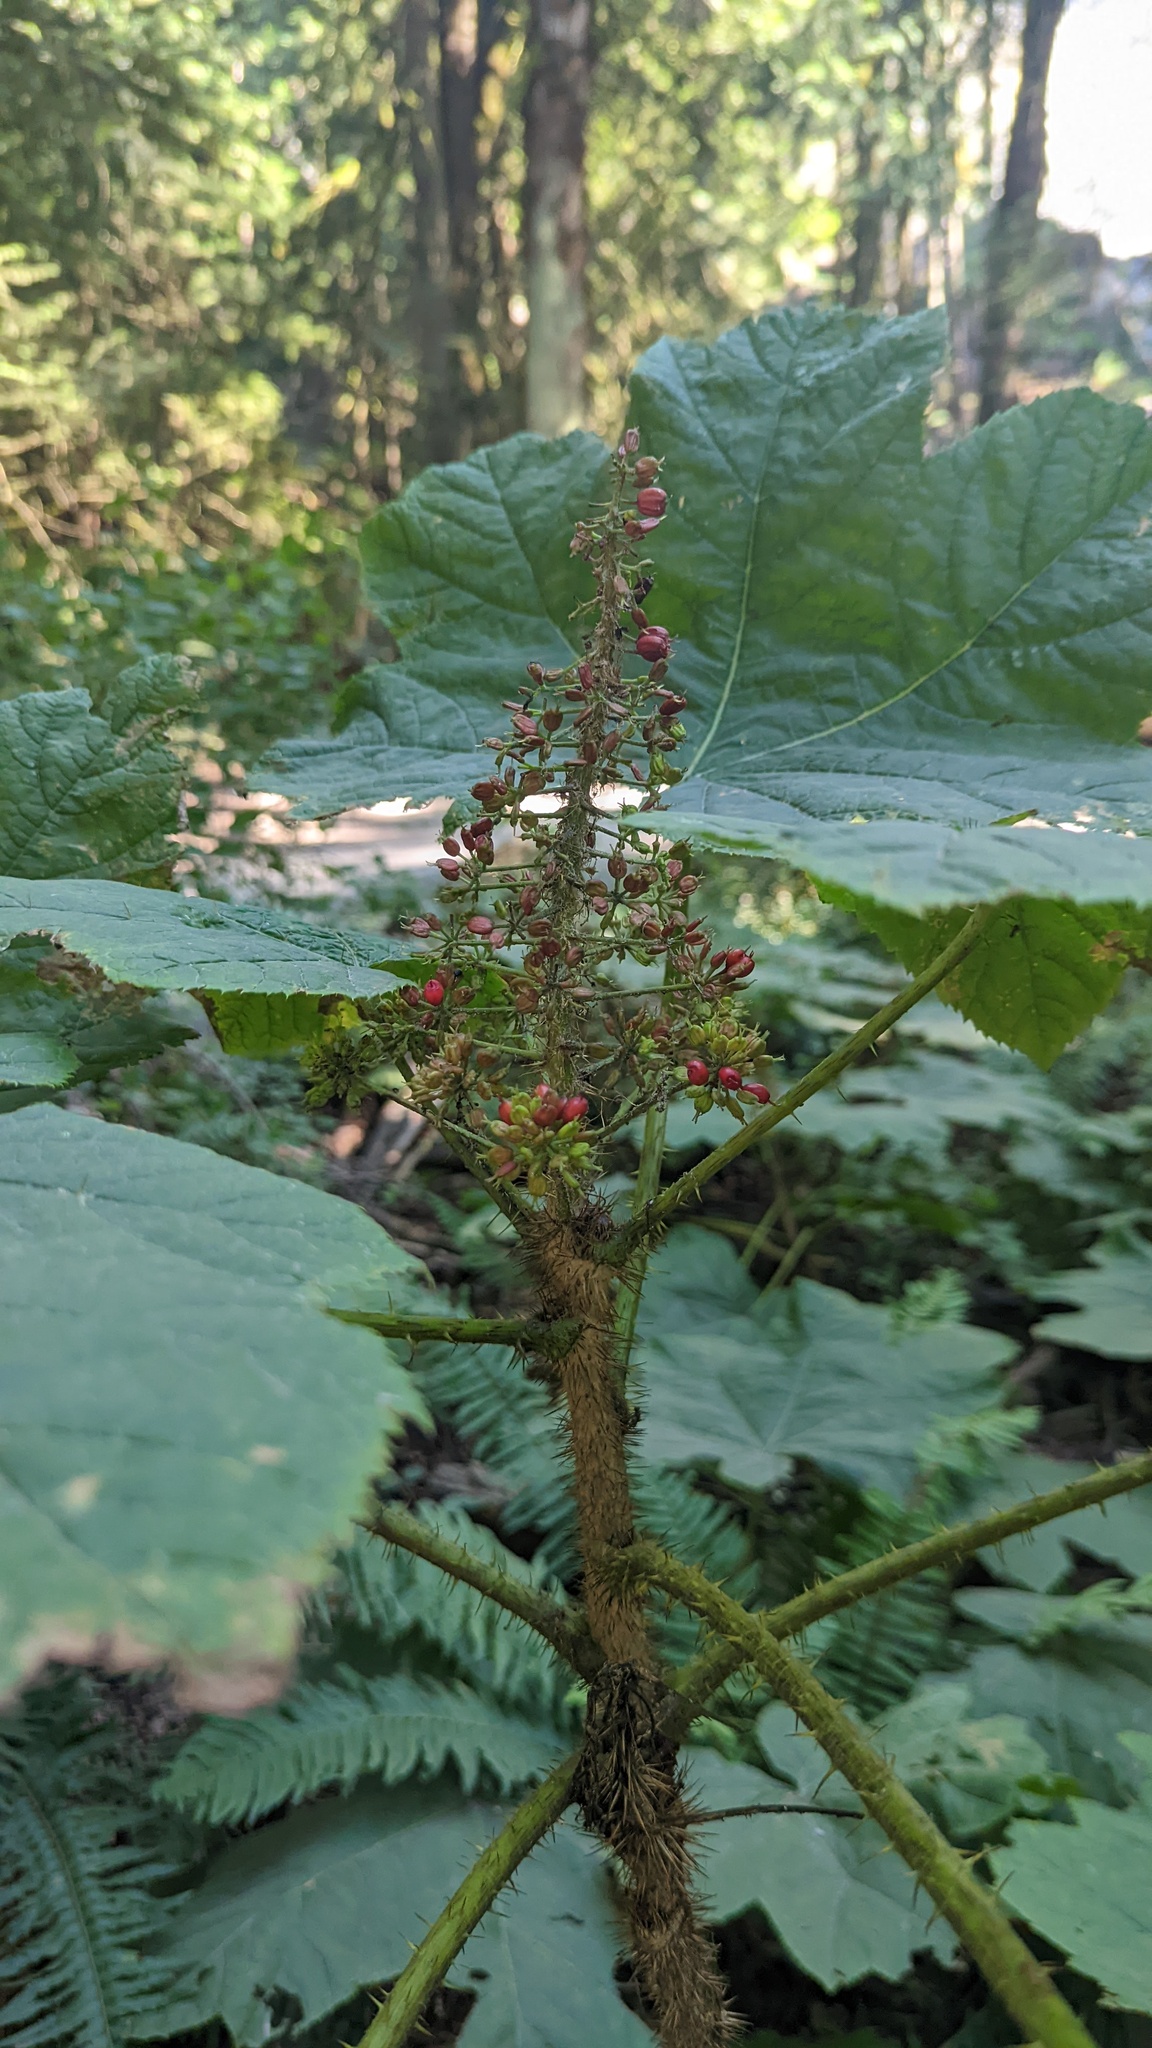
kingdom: Plantae
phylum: Tracheophyta
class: Magnoliopsida
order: Apiales
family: Araliaceae
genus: Oplopanax
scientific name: Oplopanax horridus
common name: Devil's walking-stick
